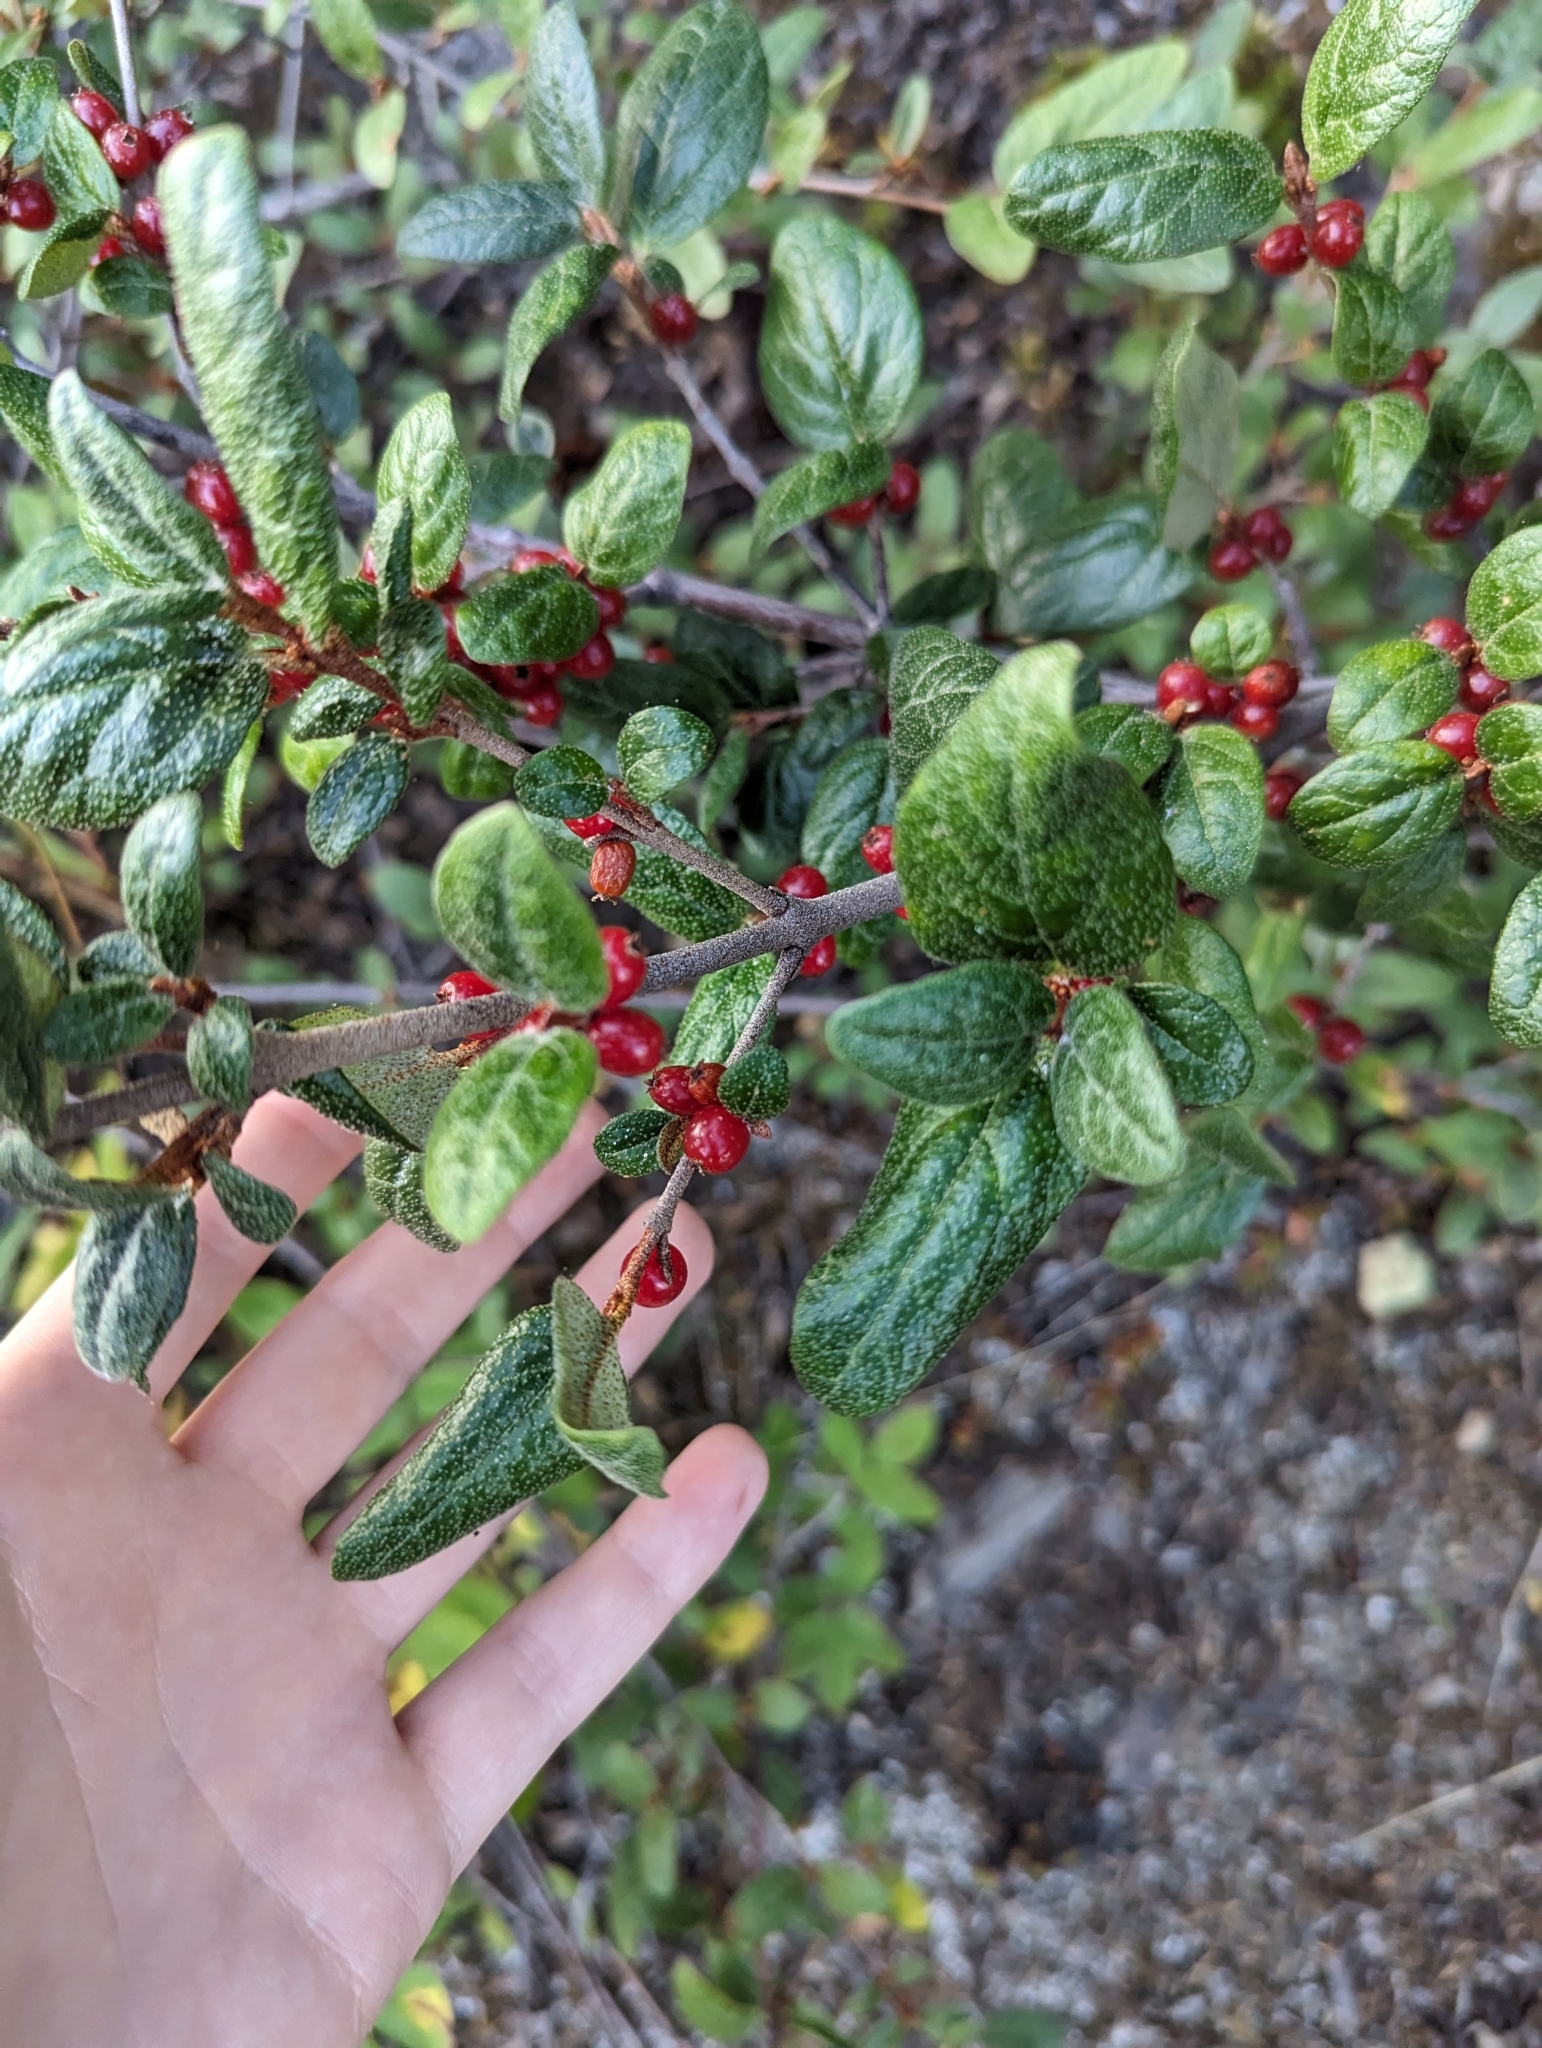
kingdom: Plantae
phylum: Tracheophyta
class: Magnoliopsida
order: Rosales
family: Elaeagnaceae
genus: Shepherdia
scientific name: Shepherdia canadensis
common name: Soapberry
